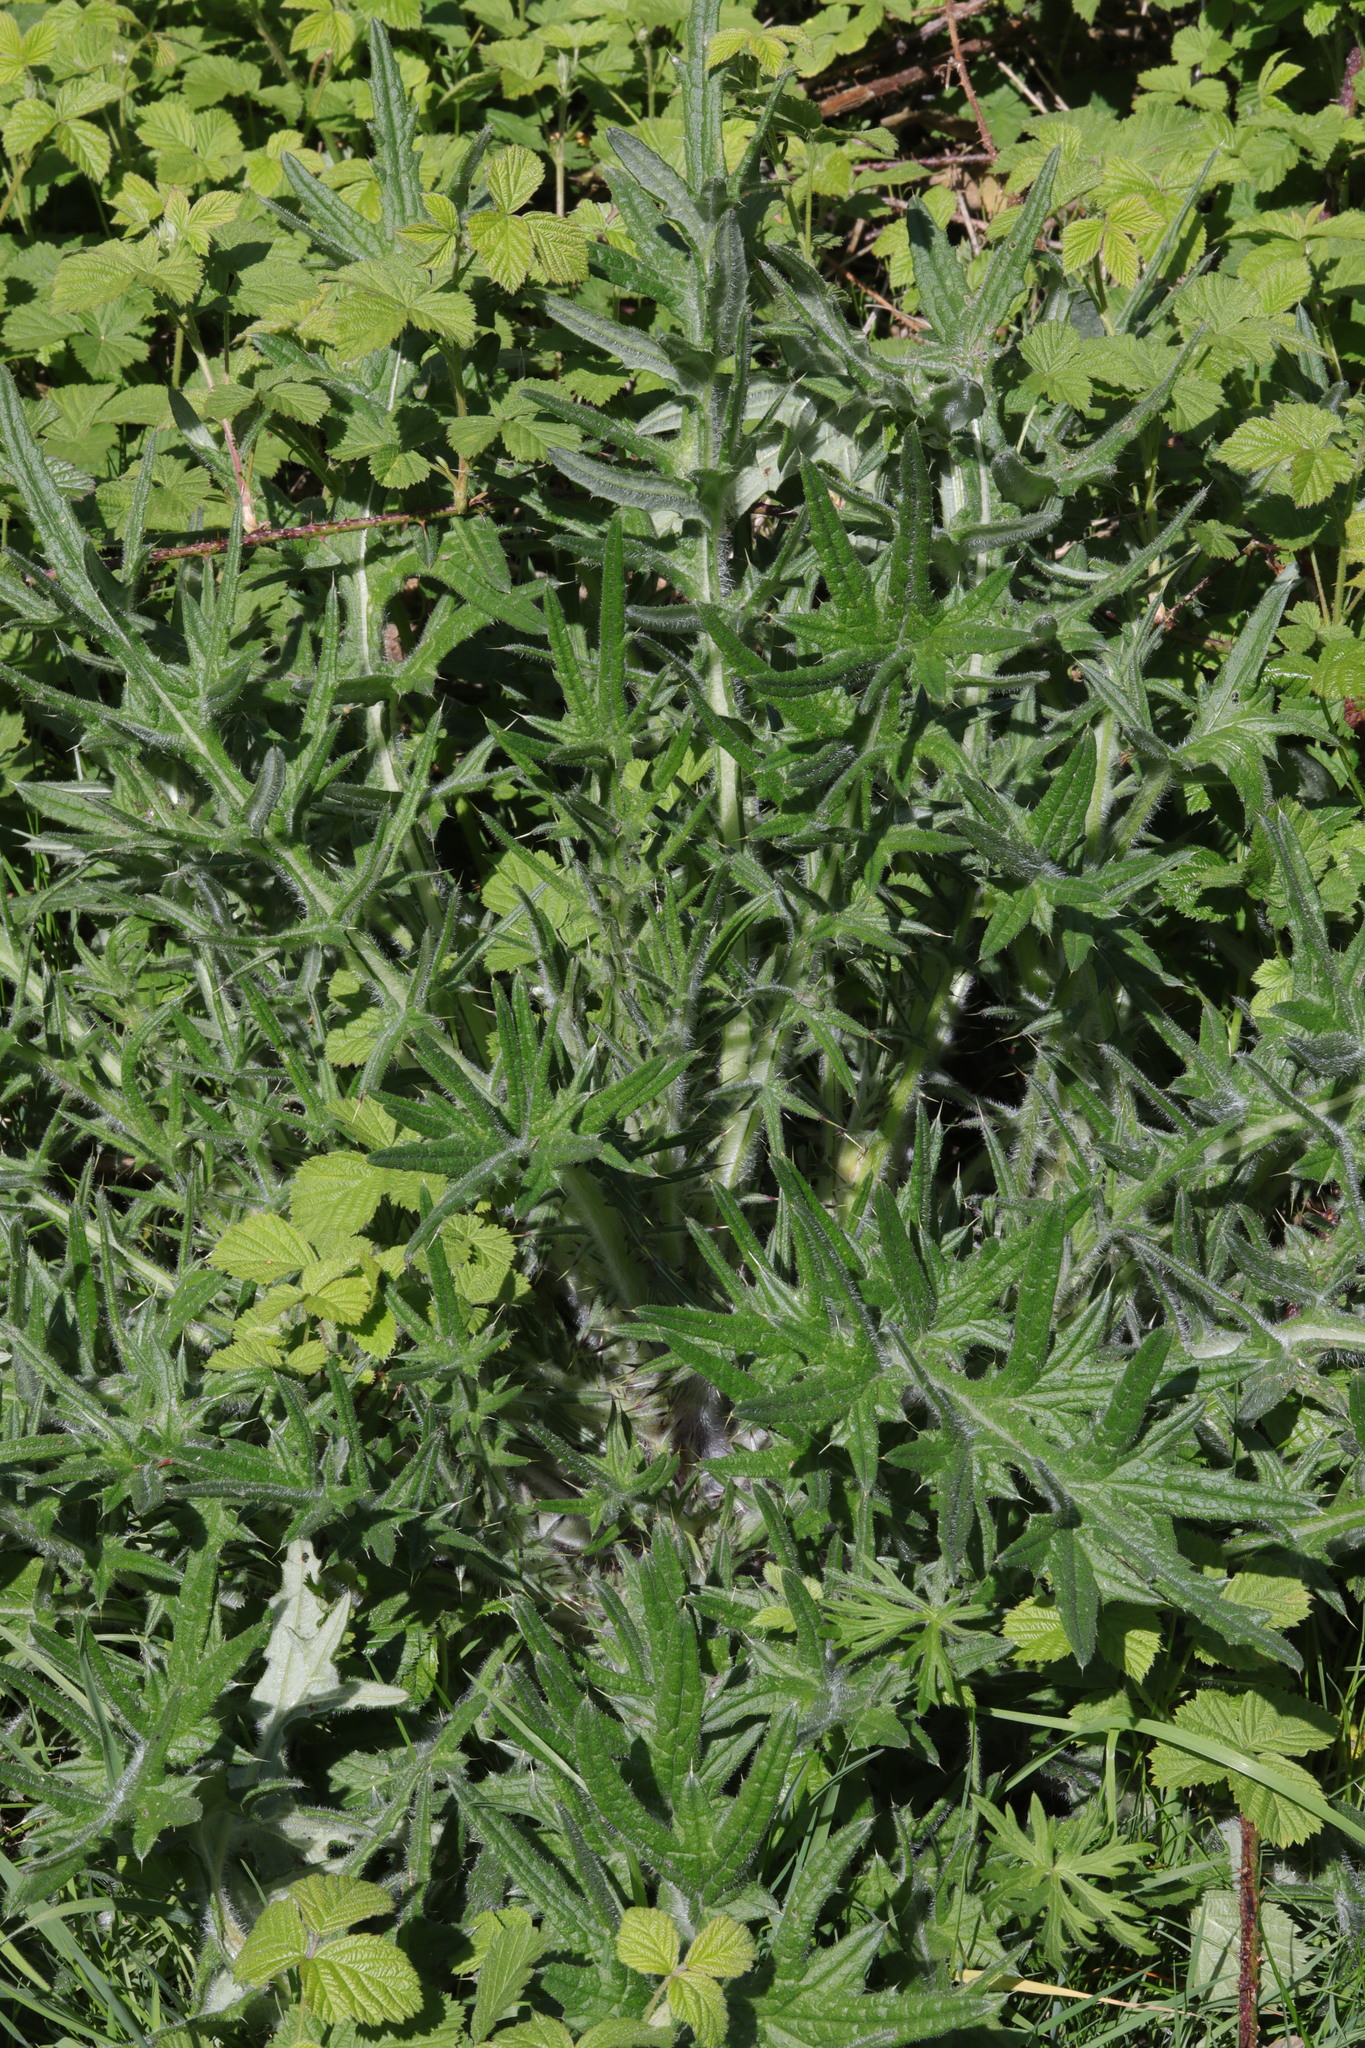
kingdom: Plantae
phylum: Tracheophyta
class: Magnoliopsida
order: Asterales
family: Asteraceae
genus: Cirsium
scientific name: Cirsium vulgare
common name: Bull thistle
